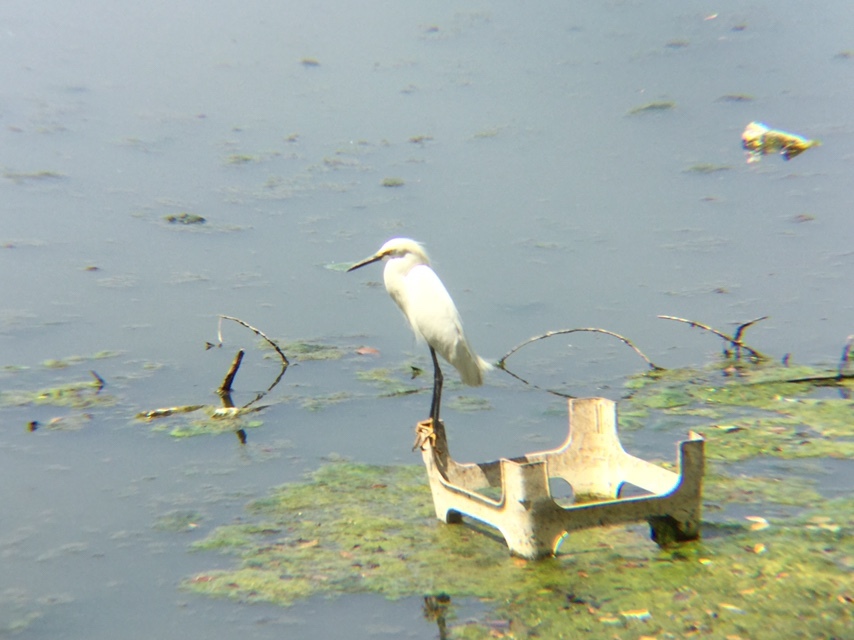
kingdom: Animalia
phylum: Chordata
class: Aves
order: Pelecaniformes
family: Ardeidae
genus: Egretta
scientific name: Egretta thula
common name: Snowy egret
